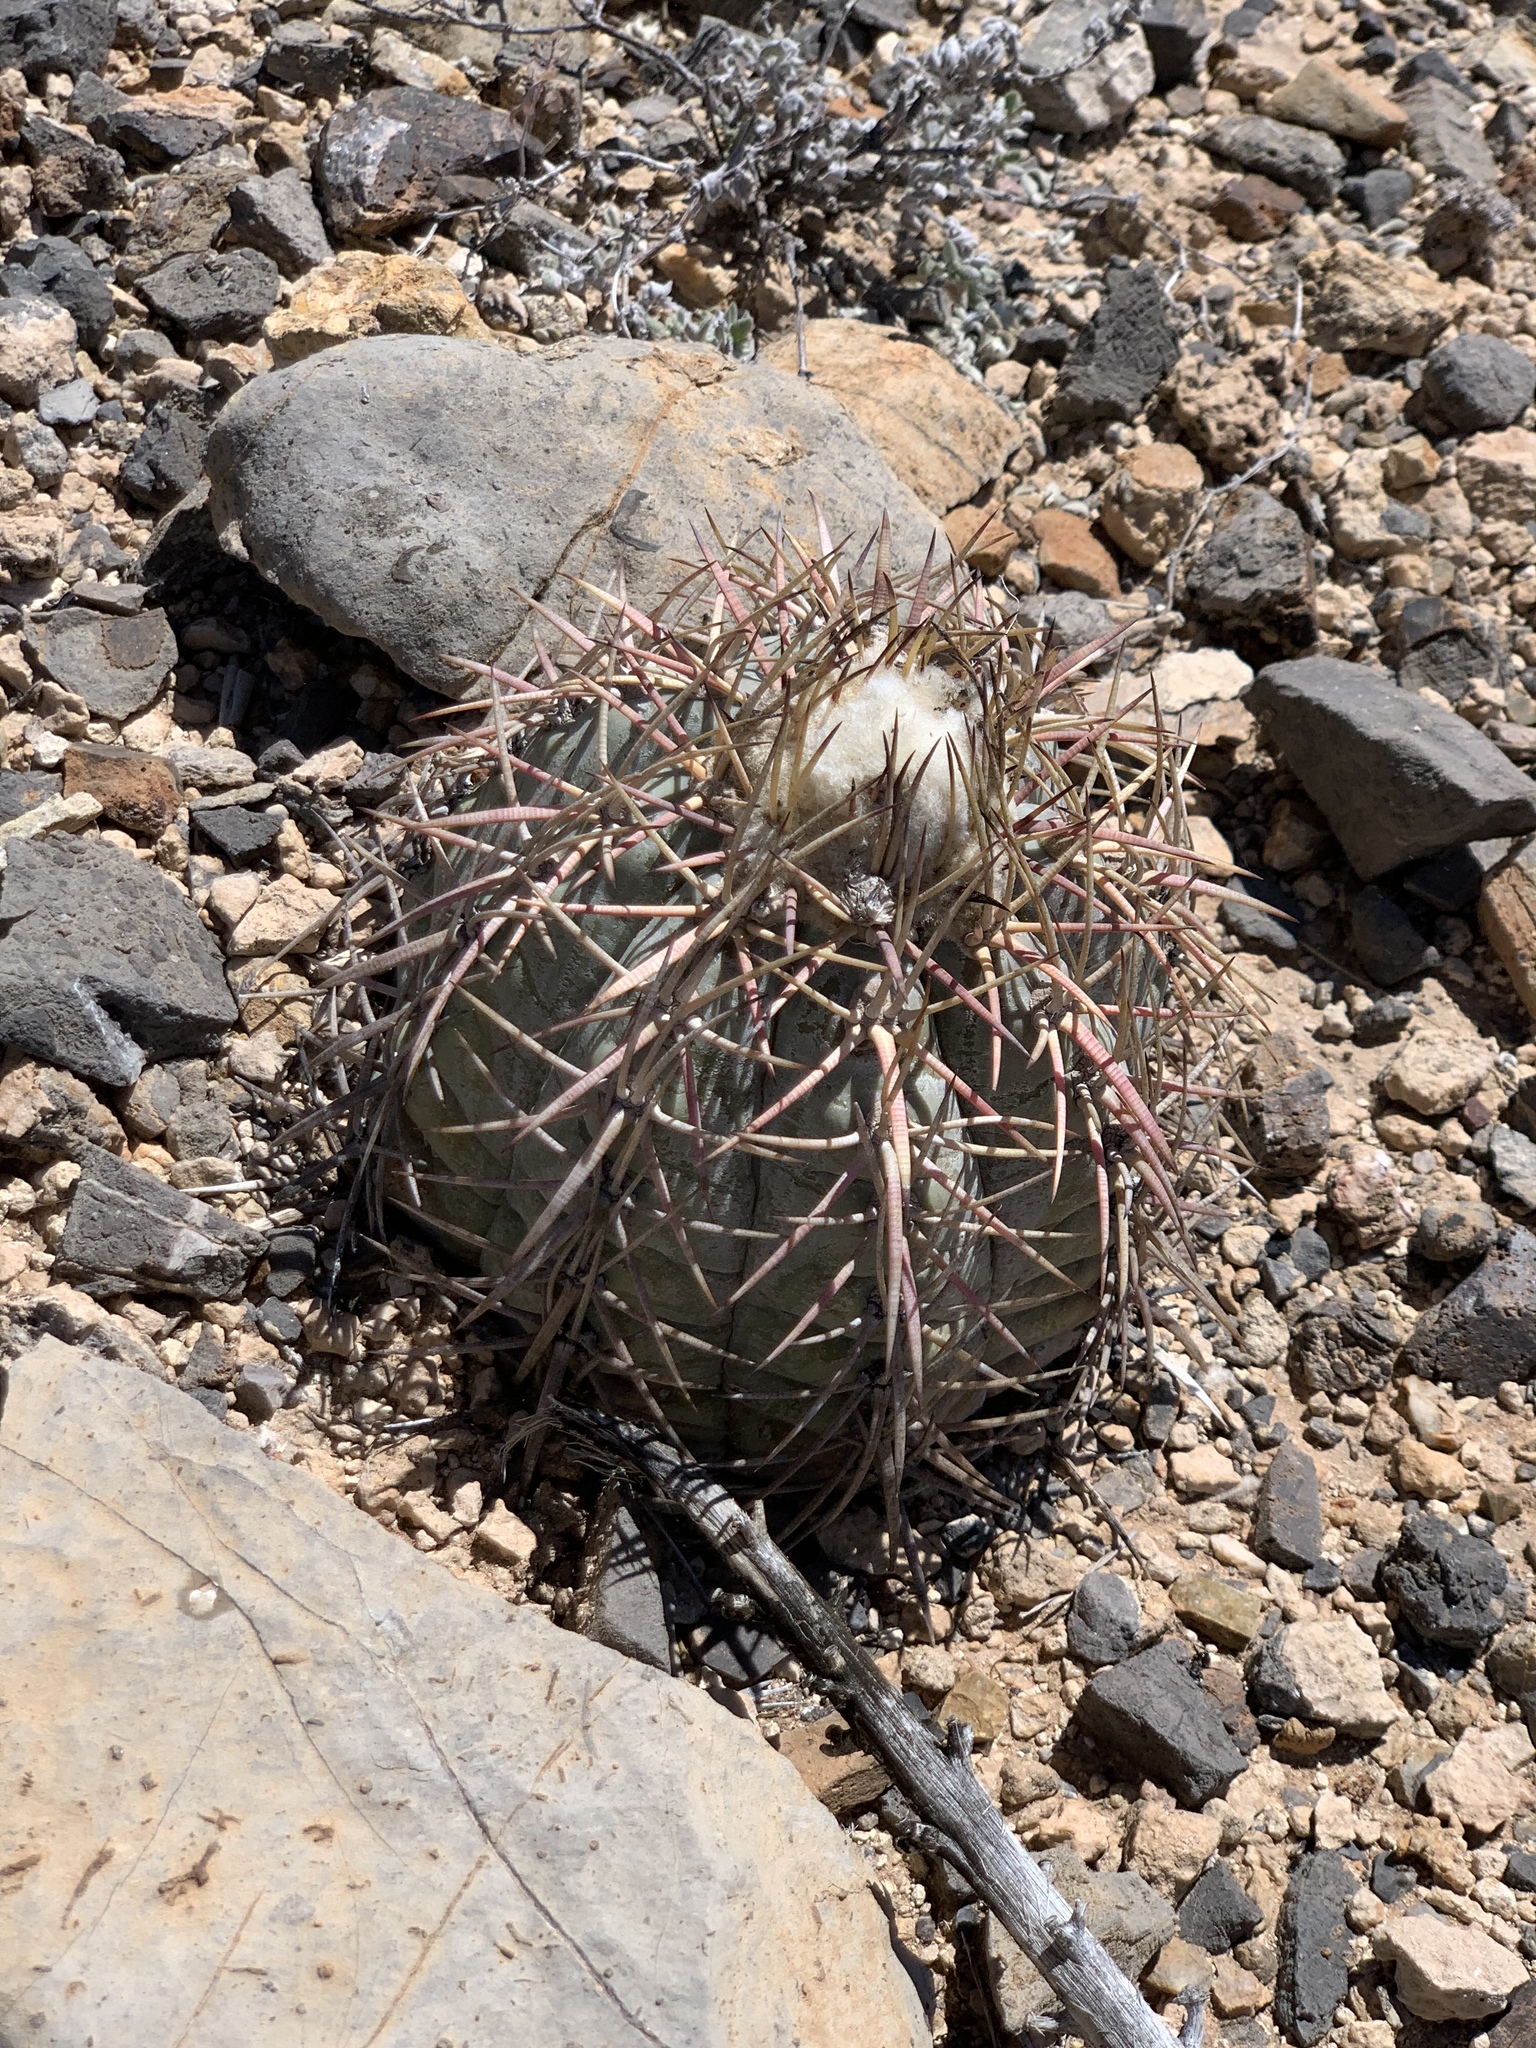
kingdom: Plantae
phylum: Tracheophyta
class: Magnoliopsida
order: Caryophyllales
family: Cactaceae
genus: Echinocactus
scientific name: Echinocactus horizonthalonius
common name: Devilshead
